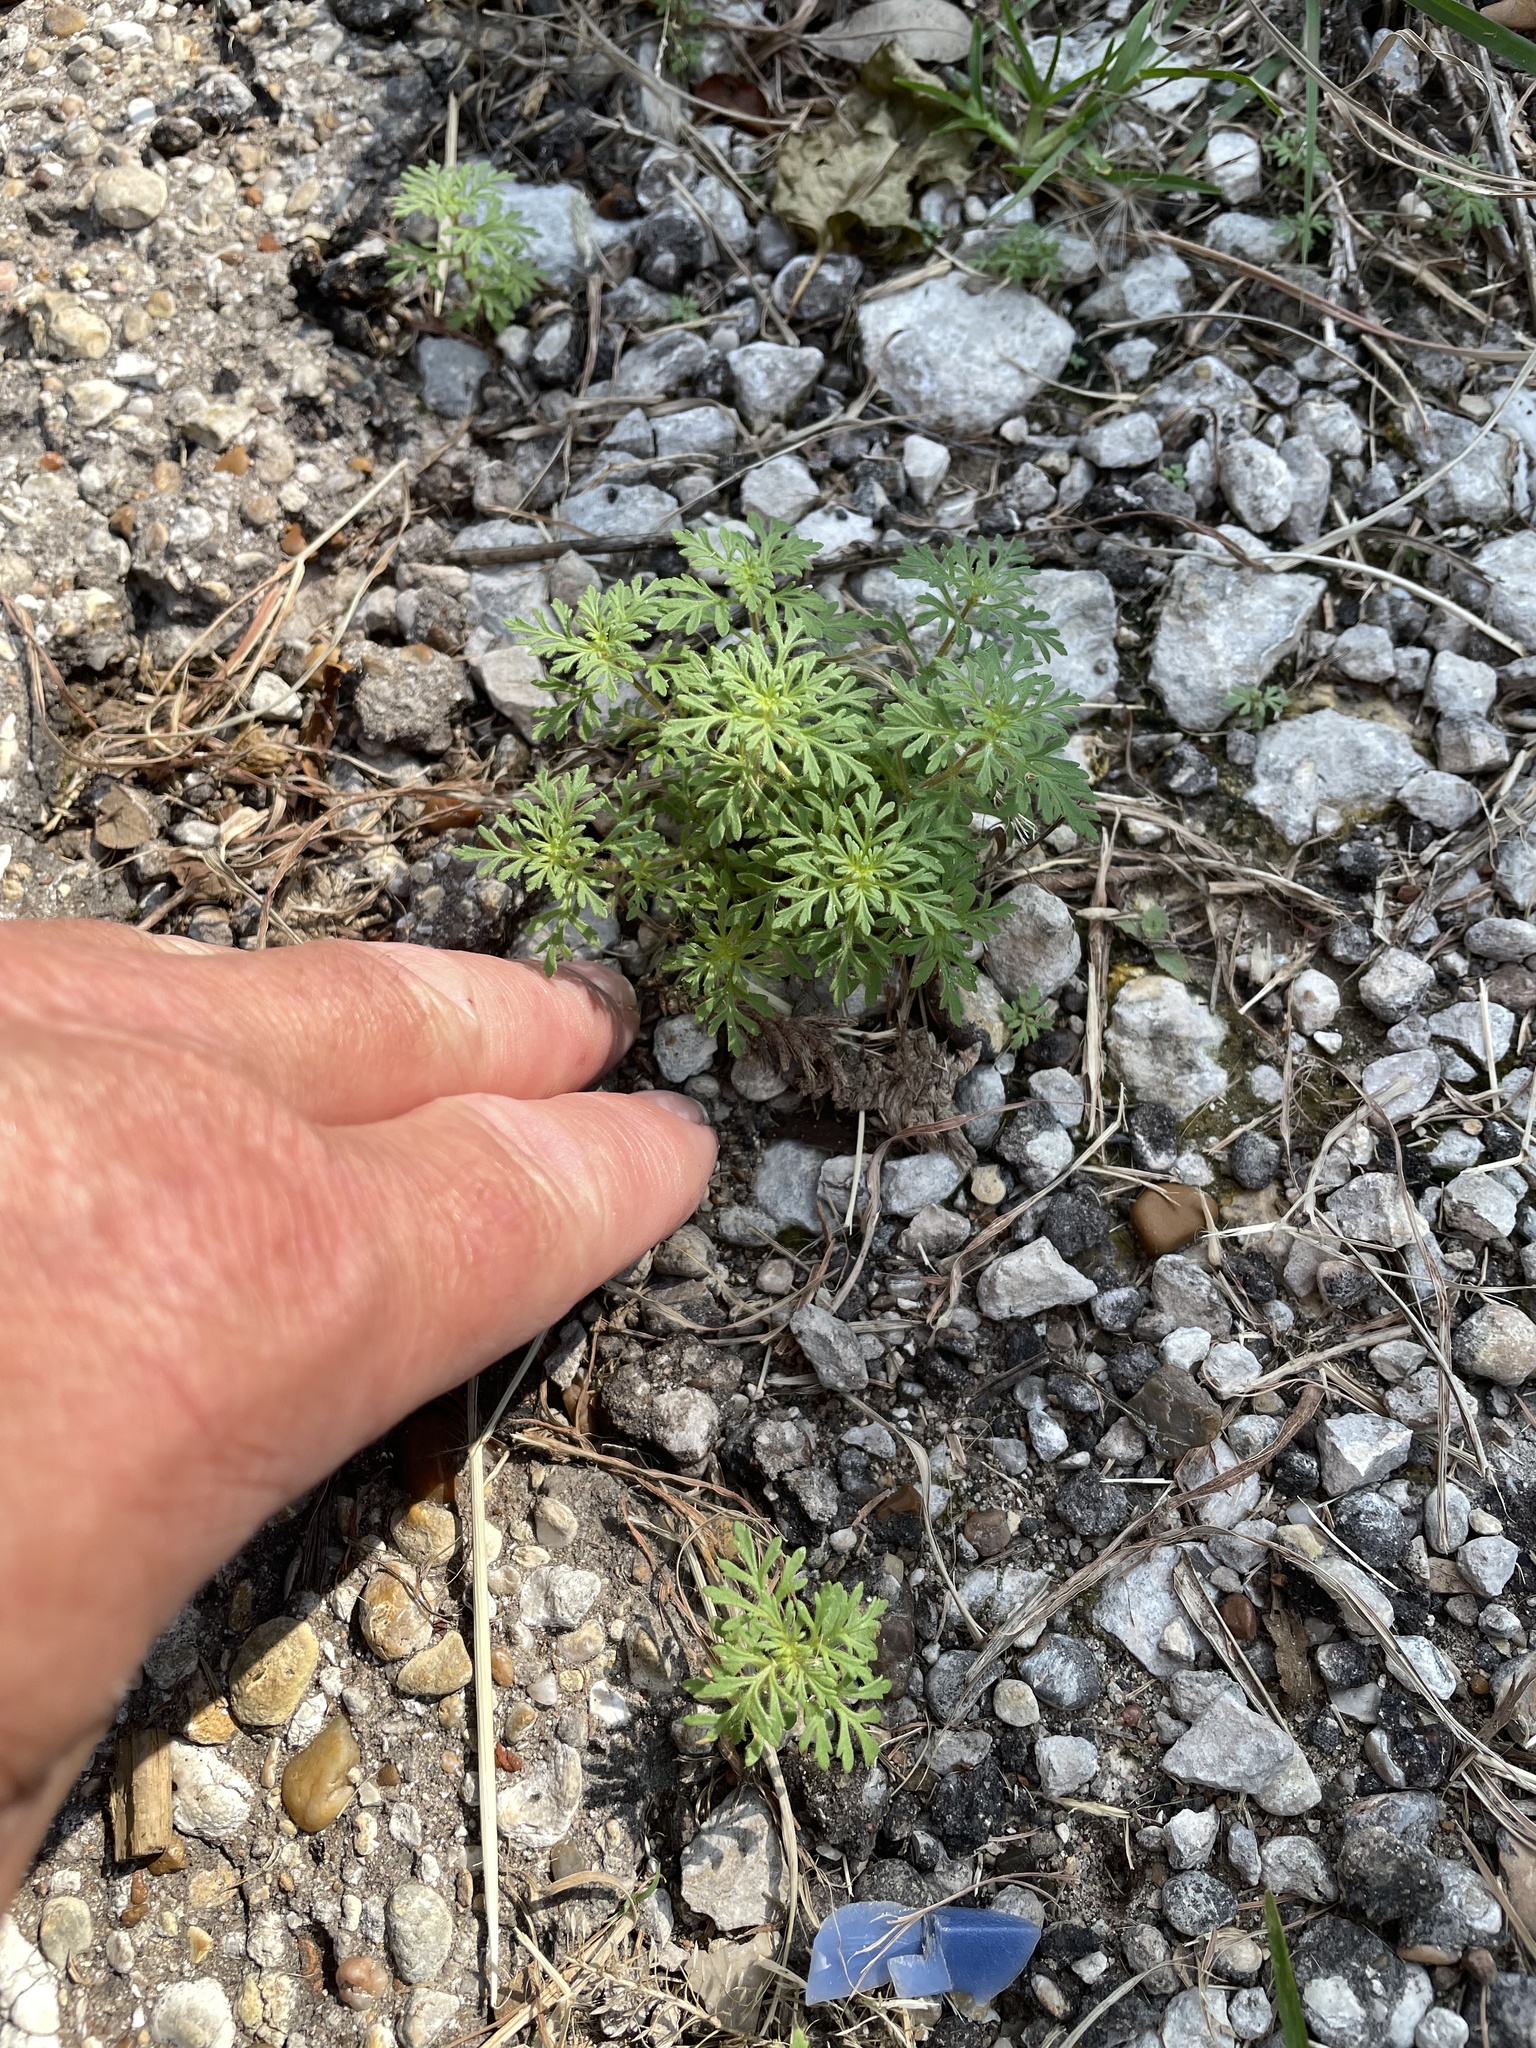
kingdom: Plantae
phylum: Tracheophyta
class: Magnoliopsida
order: Lamiales
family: Plantaginaceae
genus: Leucospora
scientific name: Leucospora multifida
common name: Narrow-leaf paleseed
